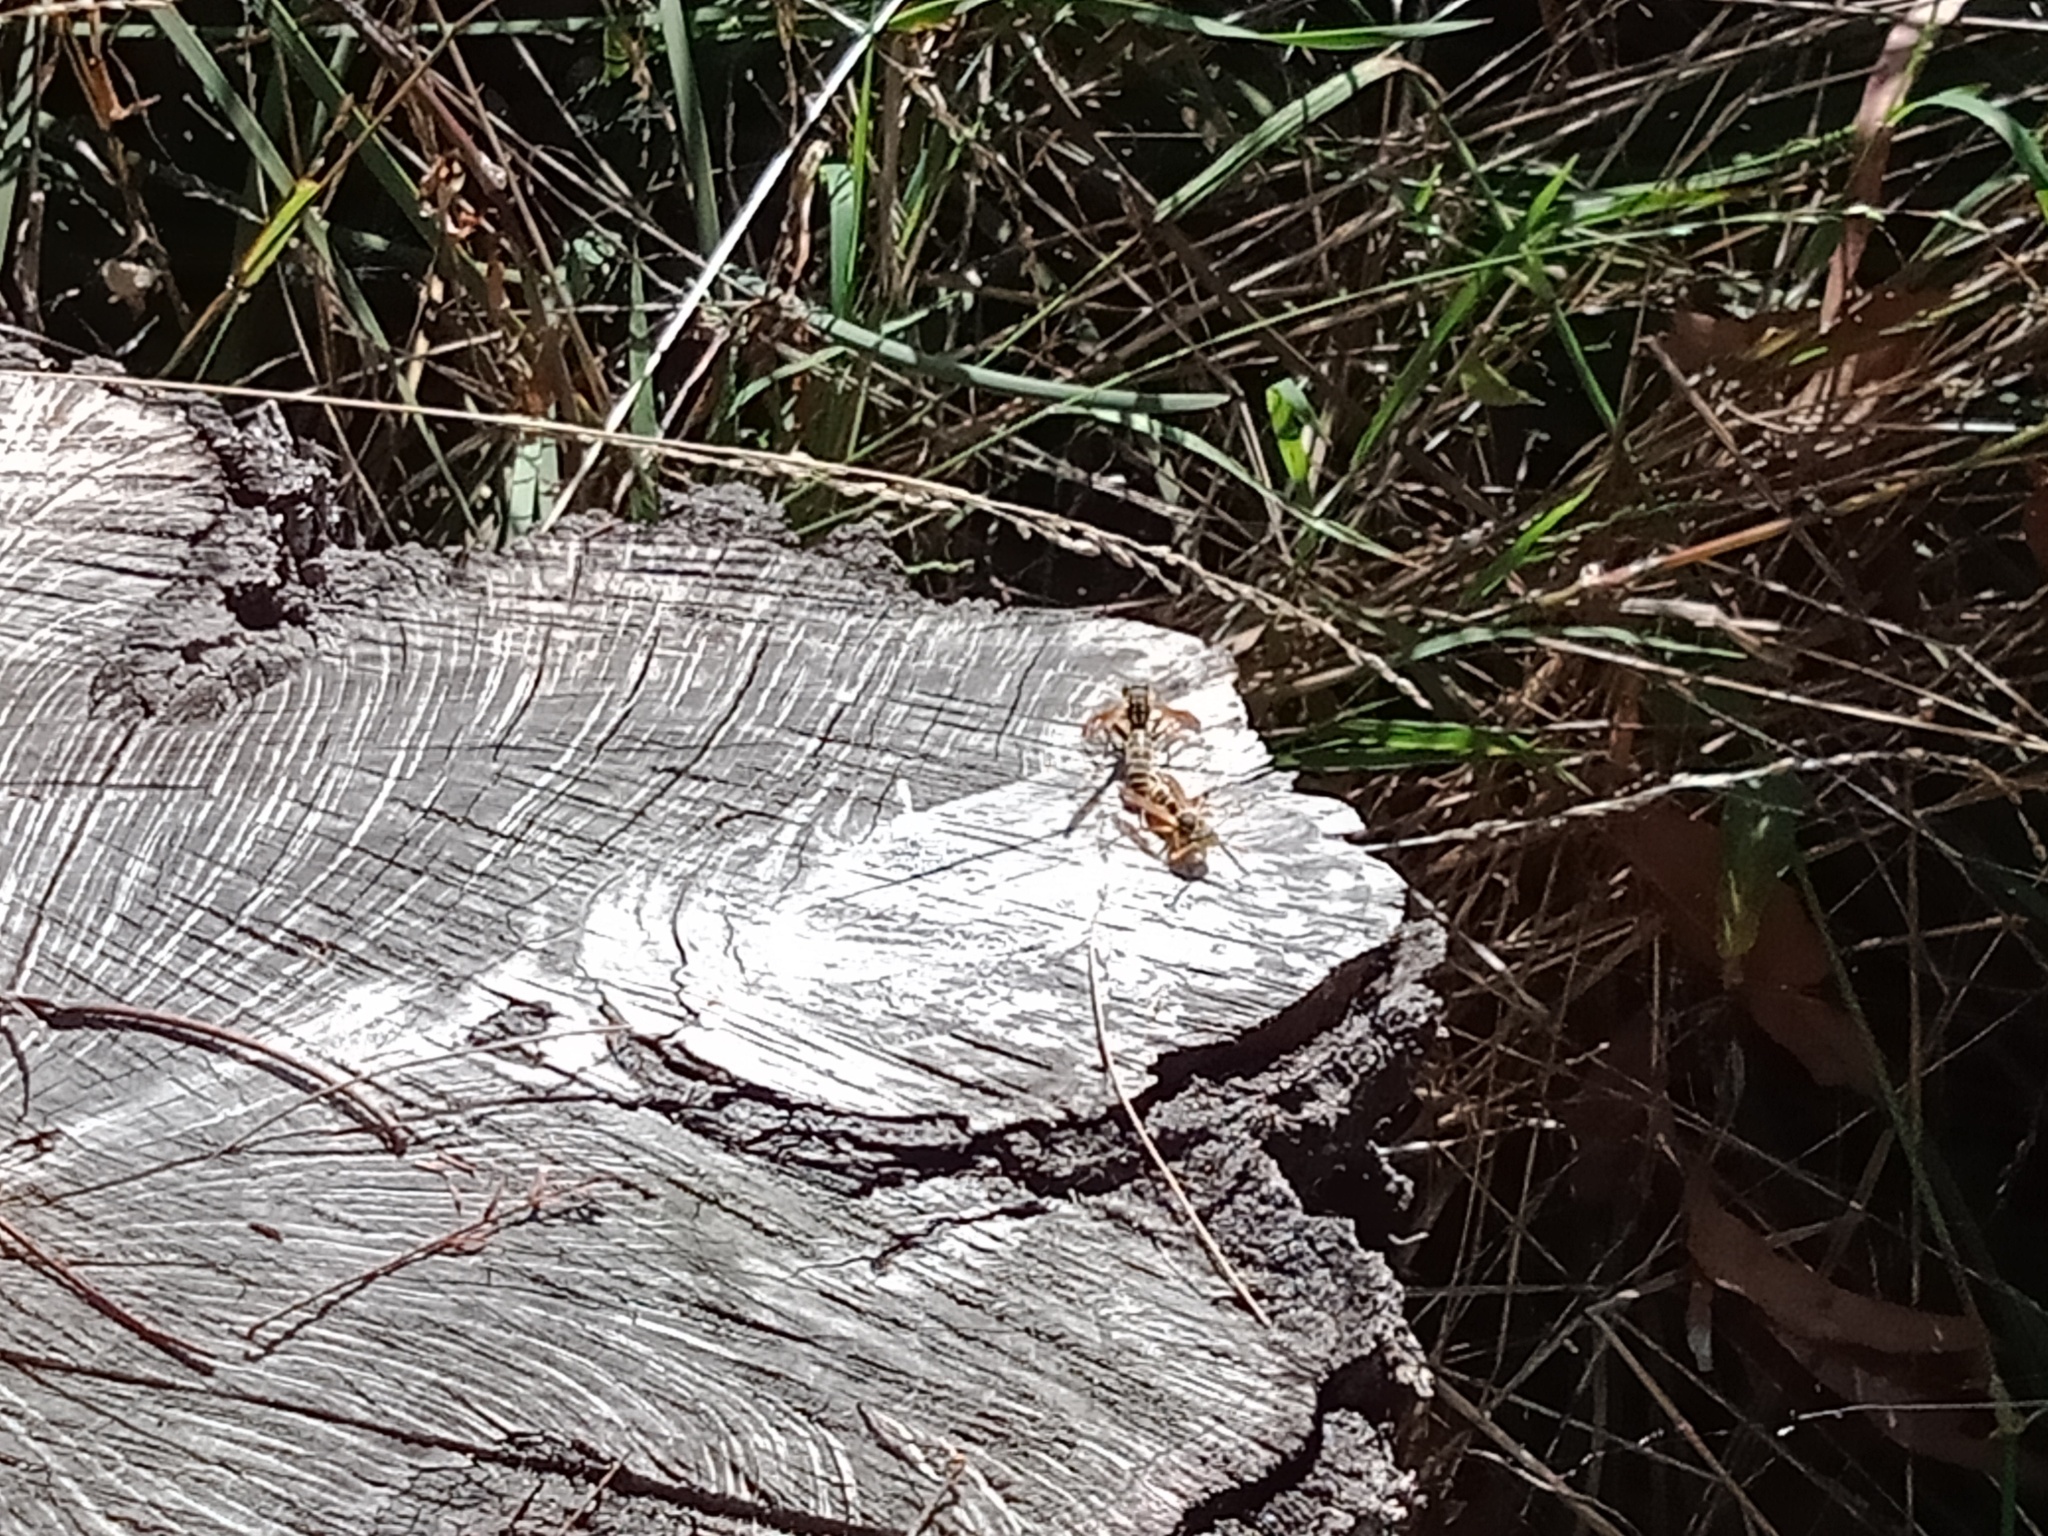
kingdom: Animalia
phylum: Arthropoda
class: Insecta
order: Hymenoptera
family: Eumenidae
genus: Polistes
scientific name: Polistes chinensis
